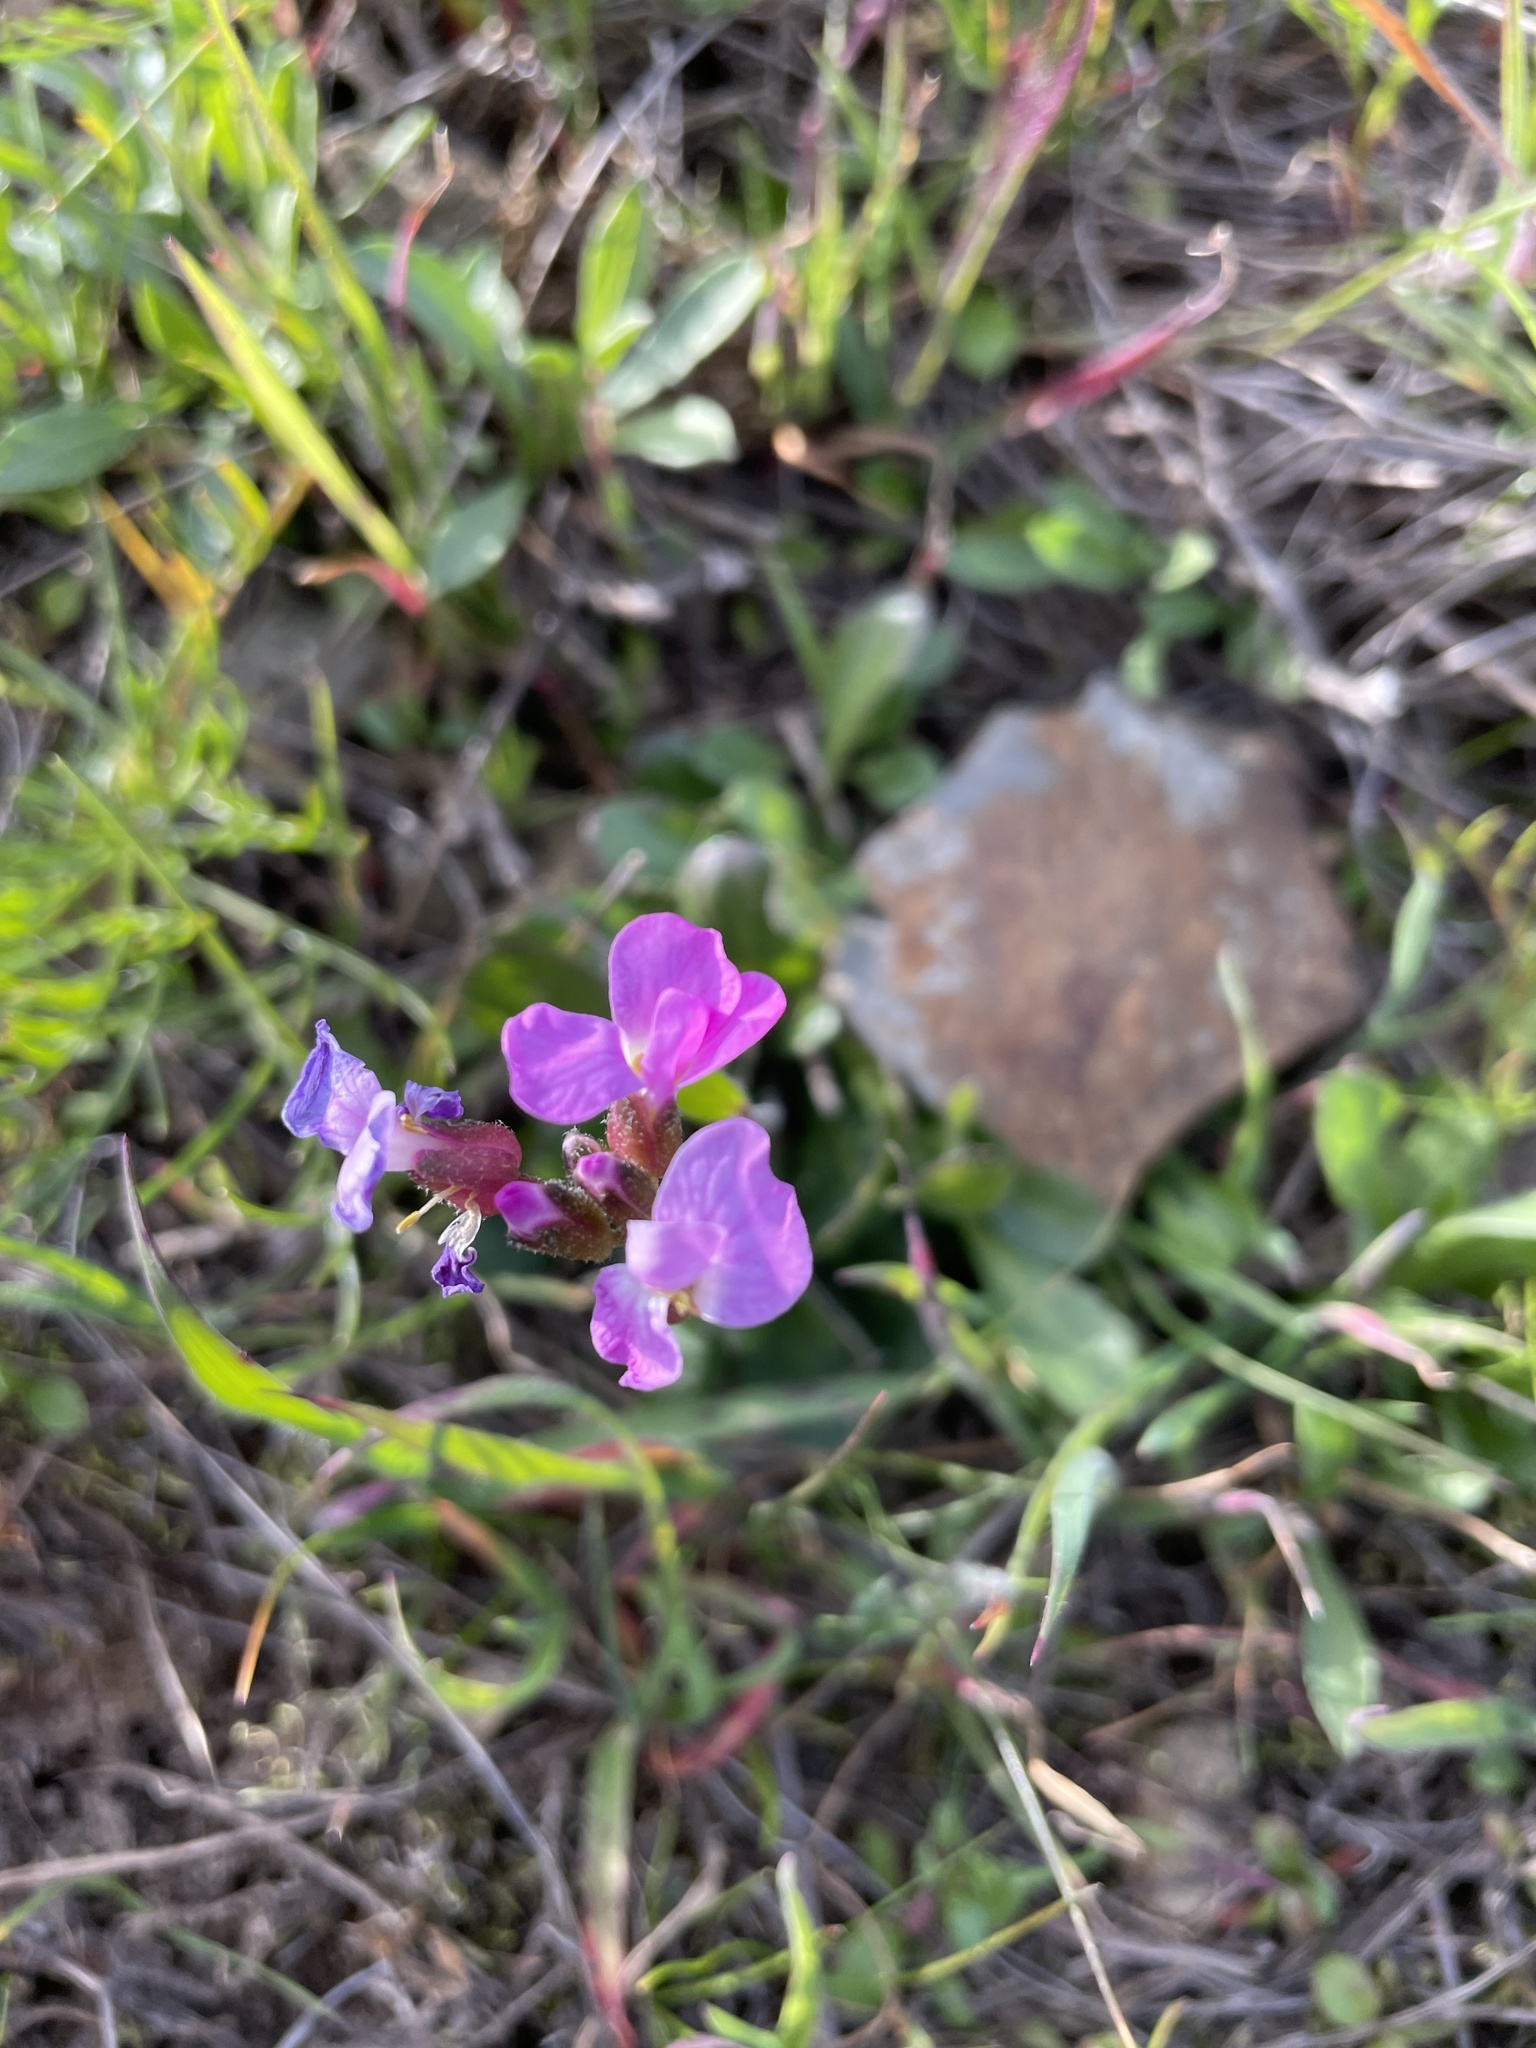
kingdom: Plantae
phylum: Tracheophyta
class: Magnoliopsida
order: Brassicales
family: Brassicaceae
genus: Arabis
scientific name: Arabis blepharophylla
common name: Rose rockcress
